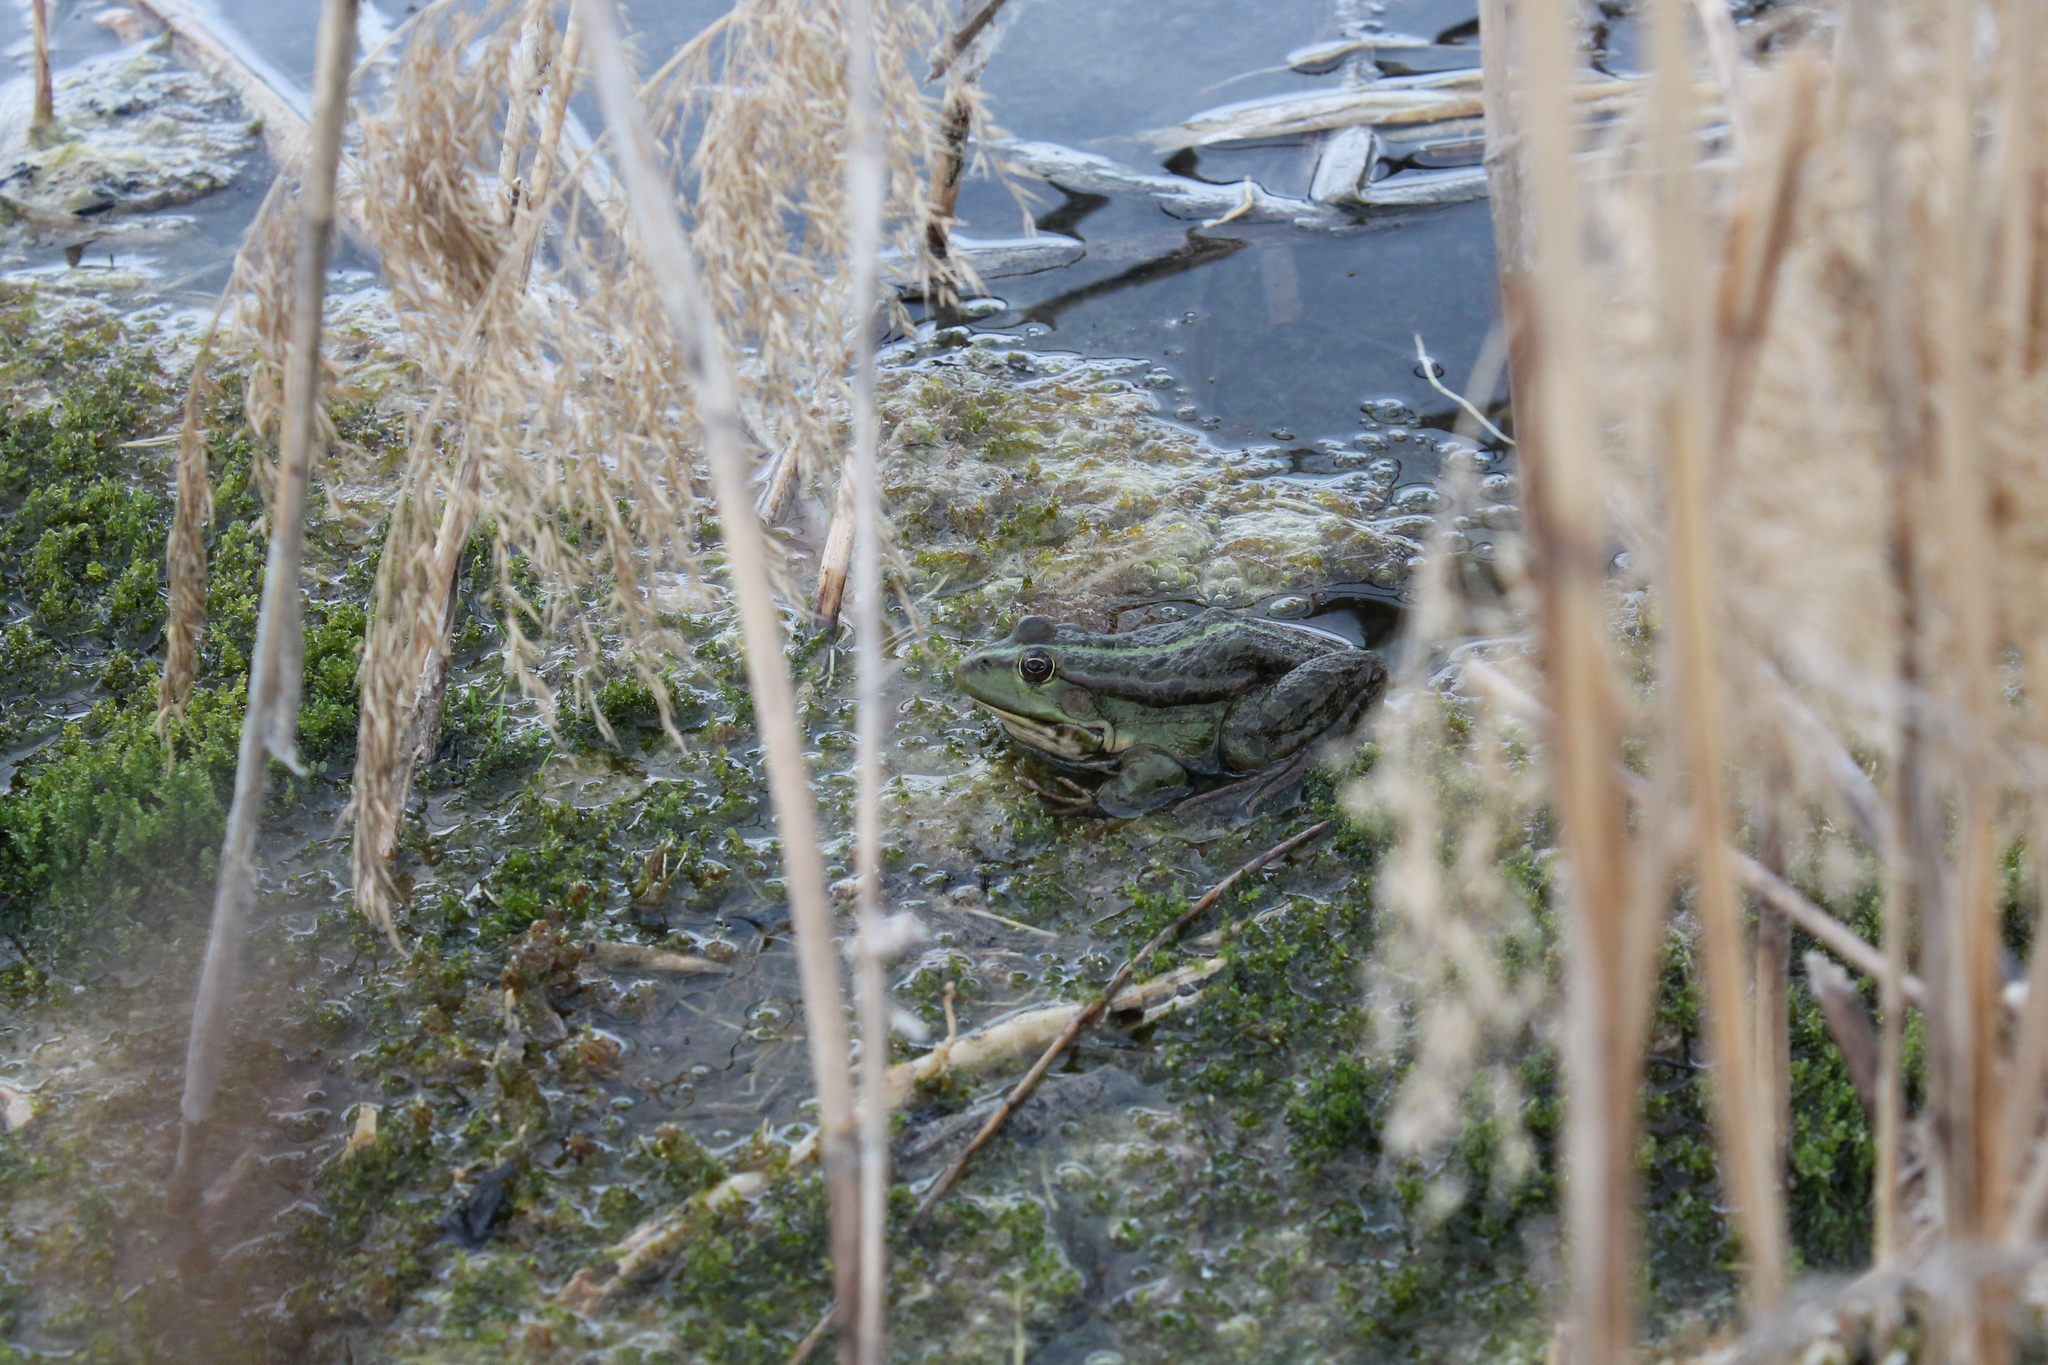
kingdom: Animalia
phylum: Chordata
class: Amphibia
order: Anura
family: Ranidae
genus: Pelophylax
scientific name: Pelophylax ridibundus
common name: Marsh frog
